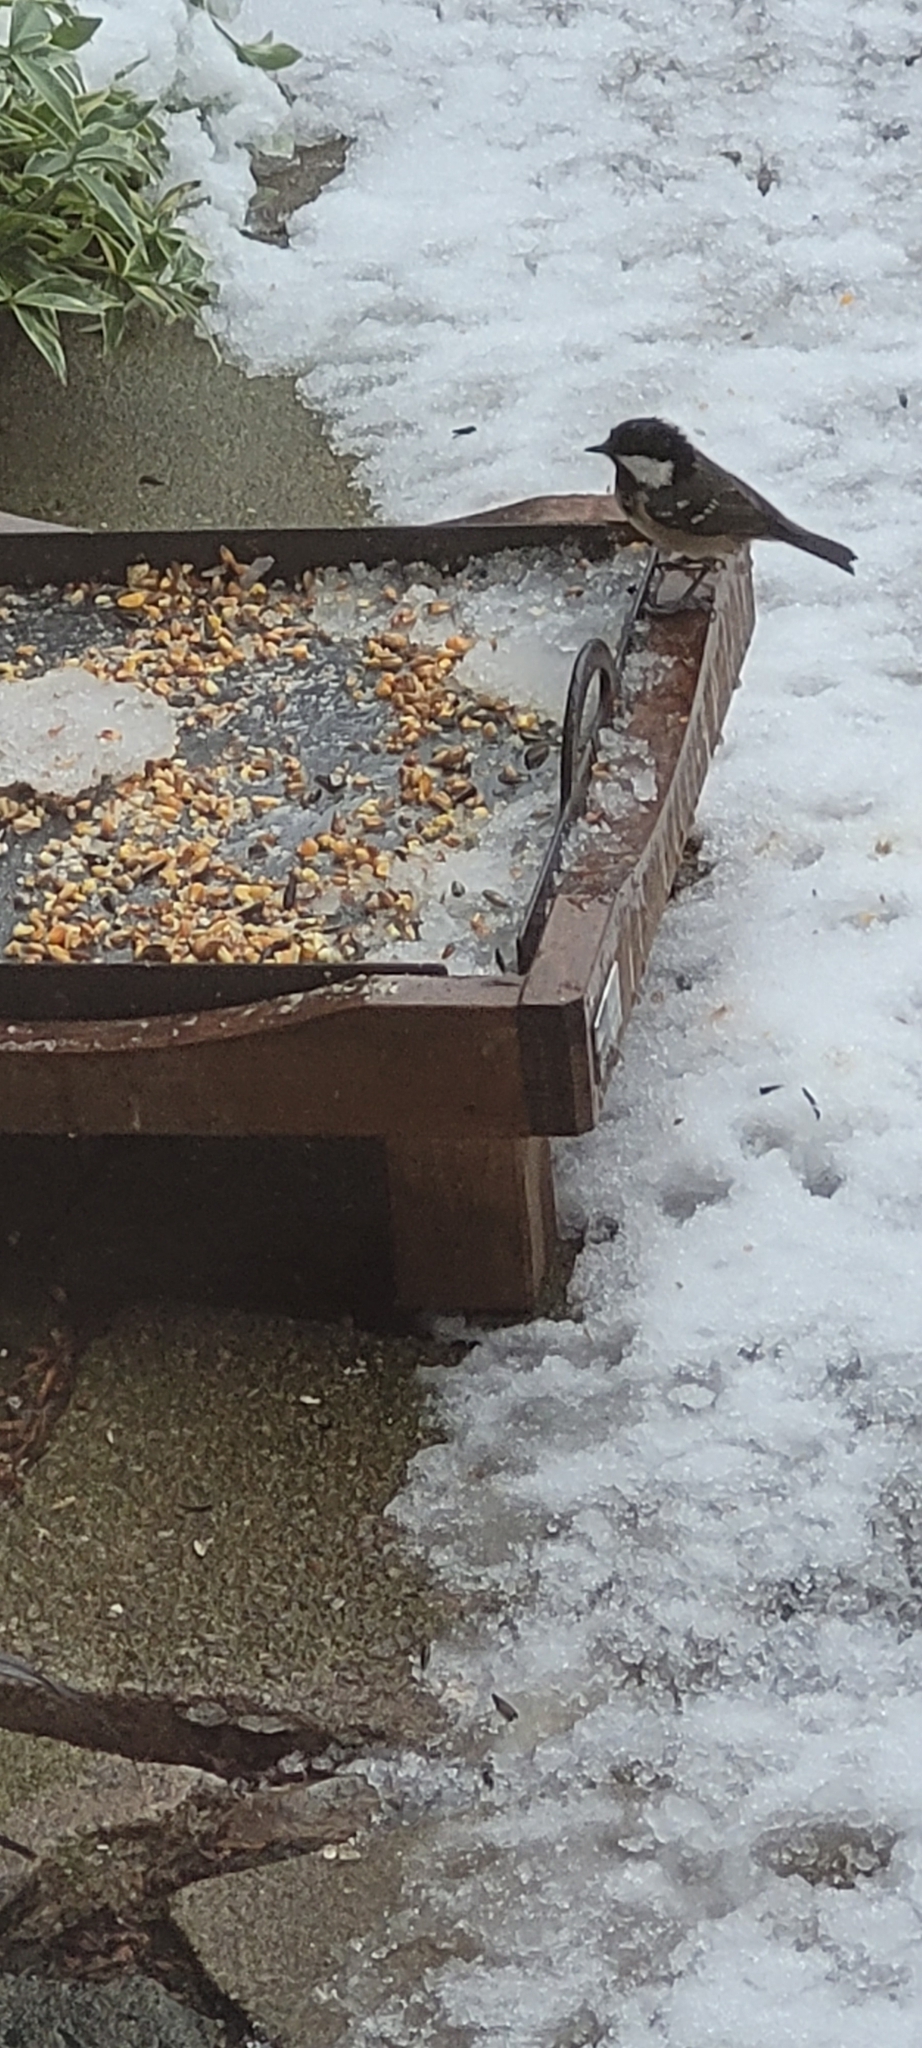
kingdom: Animalia
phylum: Chordata
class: Aves
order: Passeriformes
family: Paridae
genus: Periparus
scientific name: Periparus ater
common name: Coal tit
